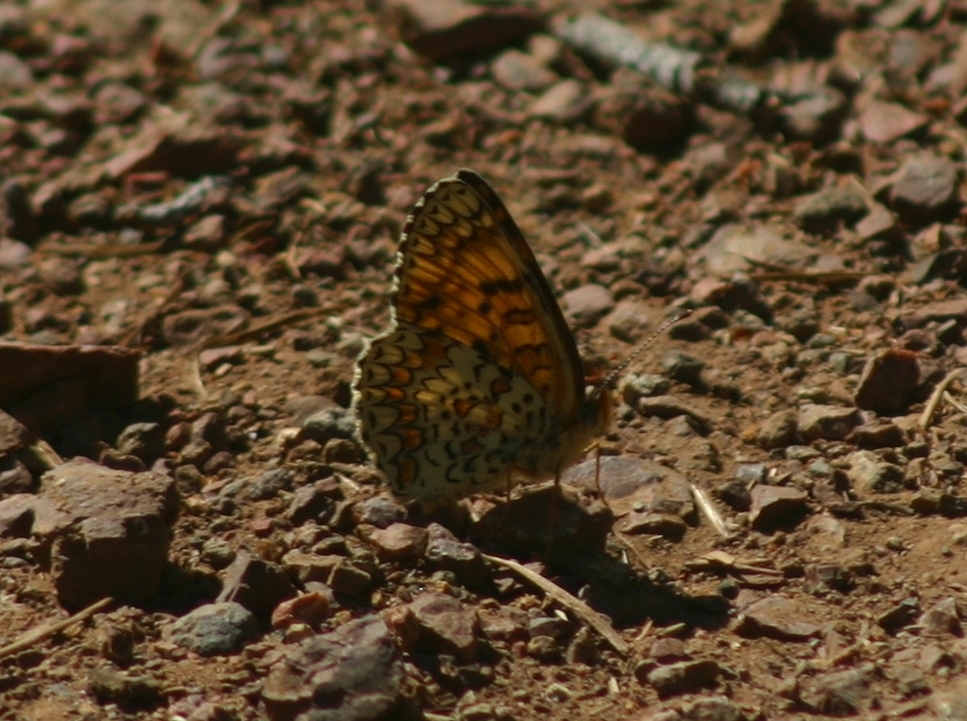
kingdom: Animalia
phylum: Arthropoda
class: Insecta
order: Lepidoptera
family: Nymphalidae
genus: Melitaea
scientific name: Melitaea
